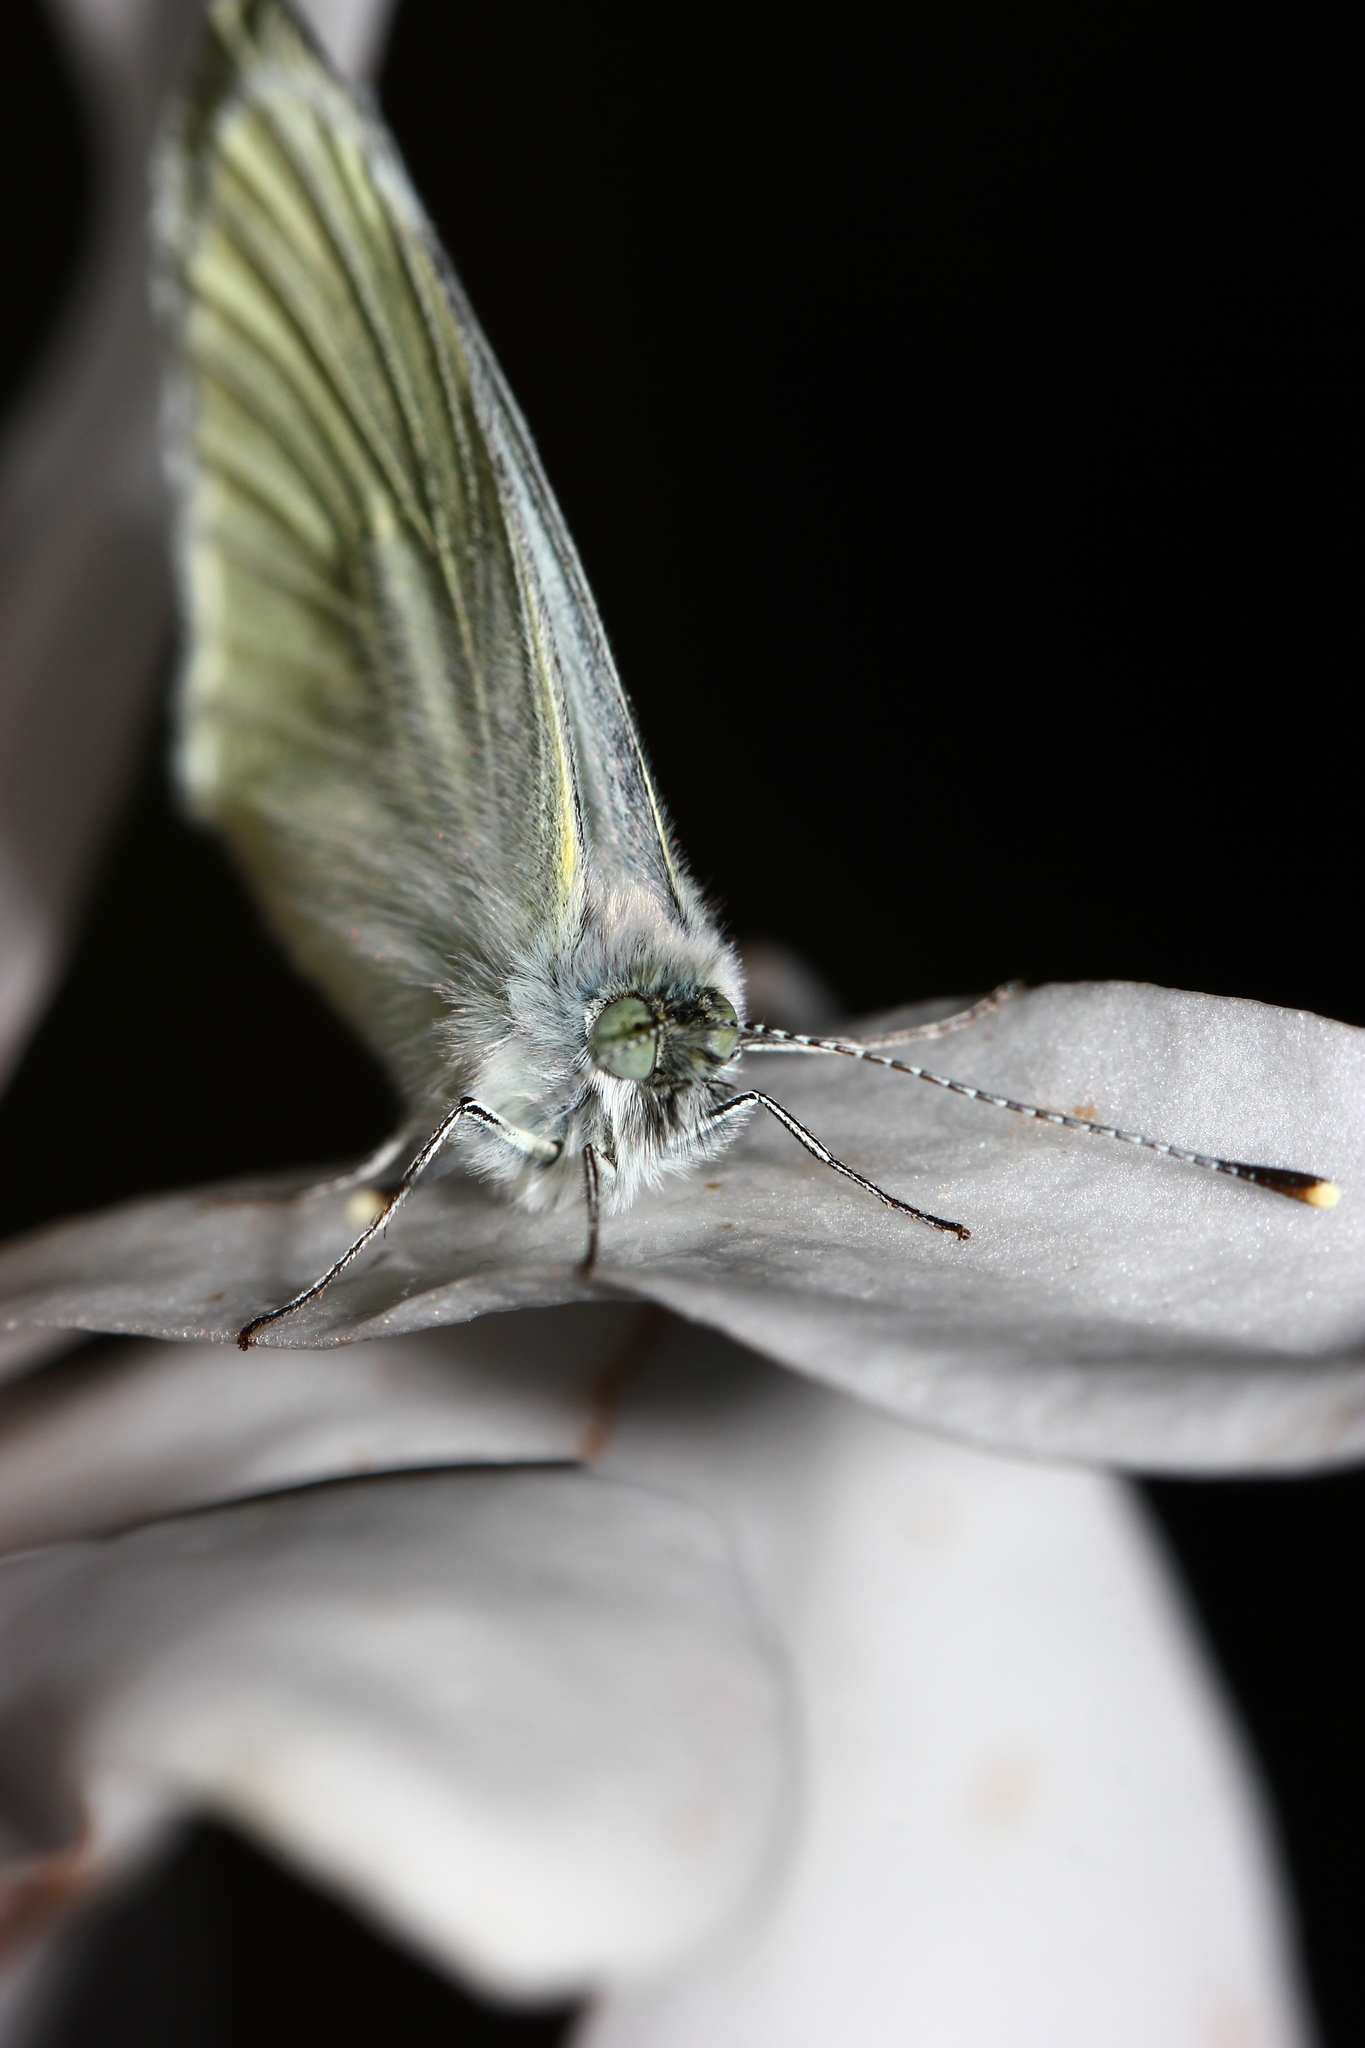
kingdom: Animalia
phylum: Arthropoda
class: Insecta
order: Lepidoptera
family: Pieridae
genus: Pieris
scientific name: Pieris napi
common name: Green-veined white
